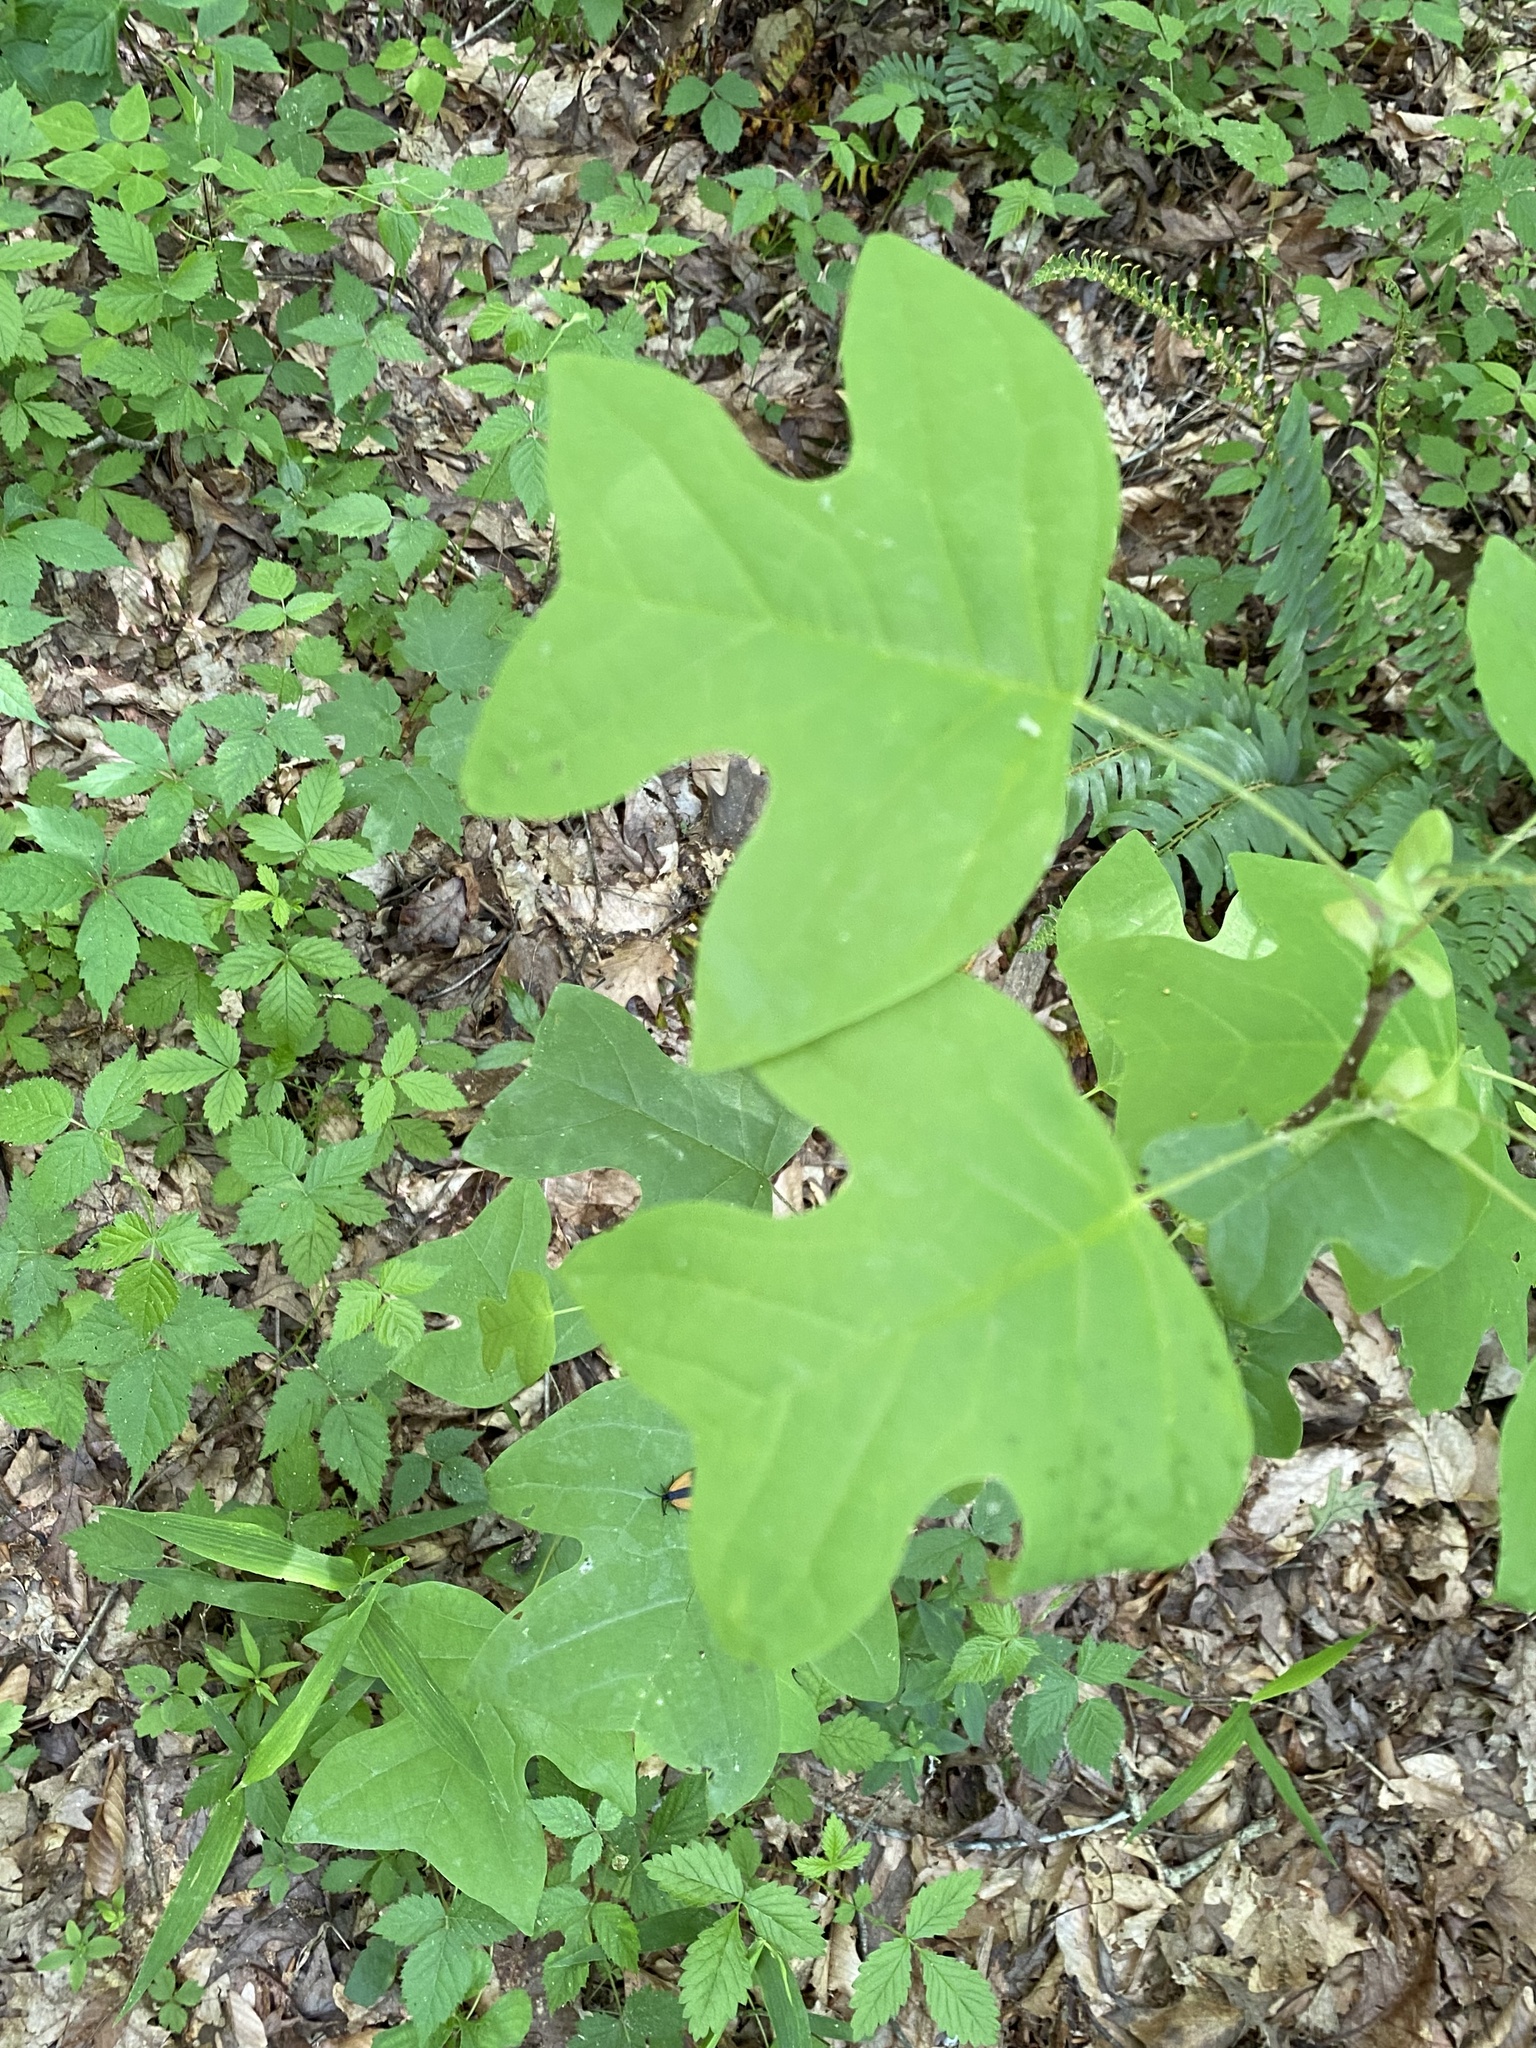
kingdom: Plantae
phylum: Tracheophyta
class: Magnoliopsida
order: Magnoliales
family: Magnoliaceae
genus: Liriodendron
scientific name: Liriodendron tulipifera
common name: Tulip tree
